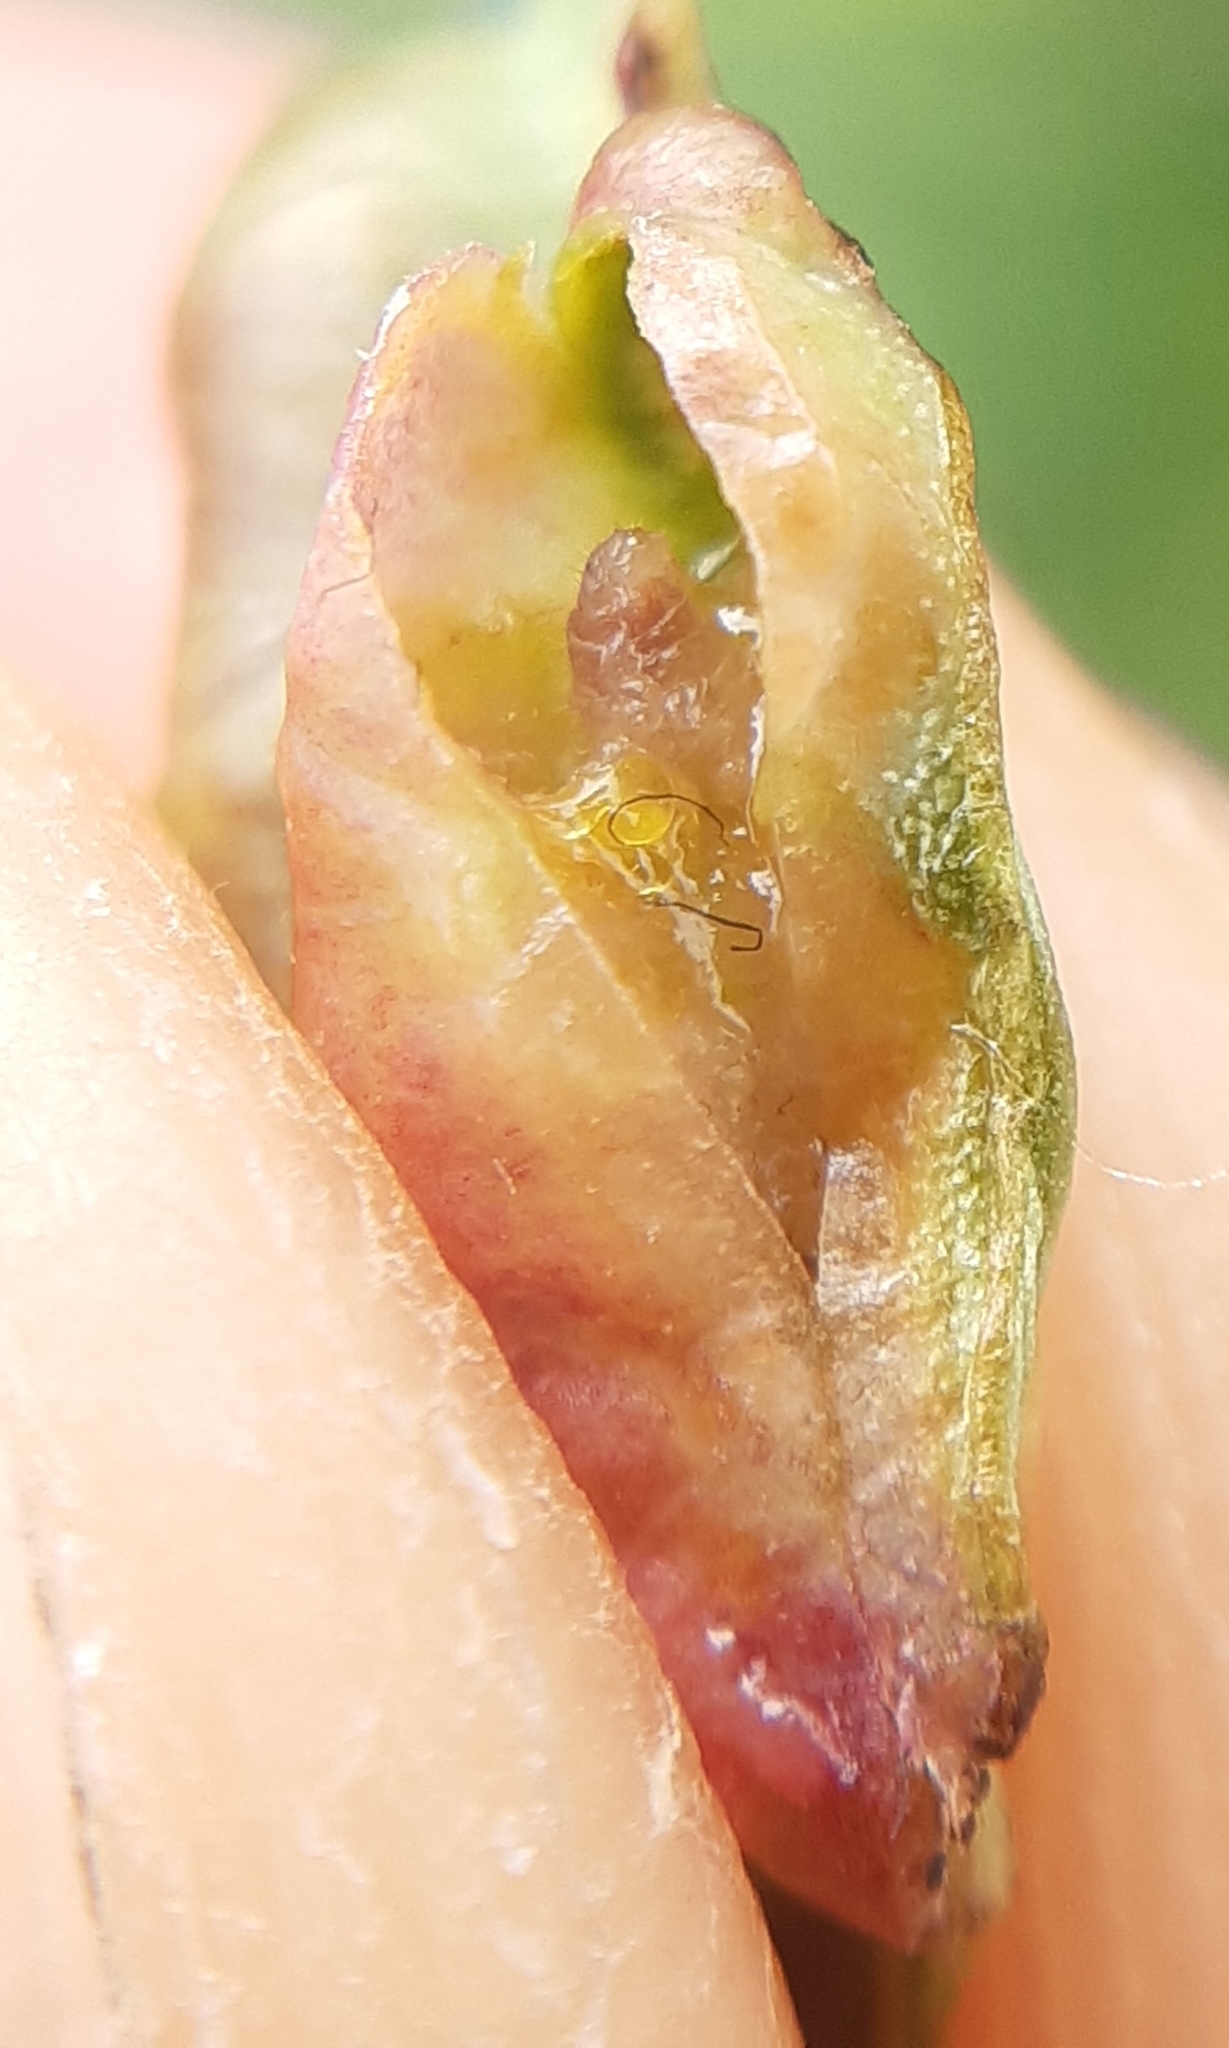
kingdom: Animalia
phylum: Arthropoda
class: Insecta
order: Hymenoptera
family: Tenthredinidae
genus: Pontania
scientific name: Pontania virilis
